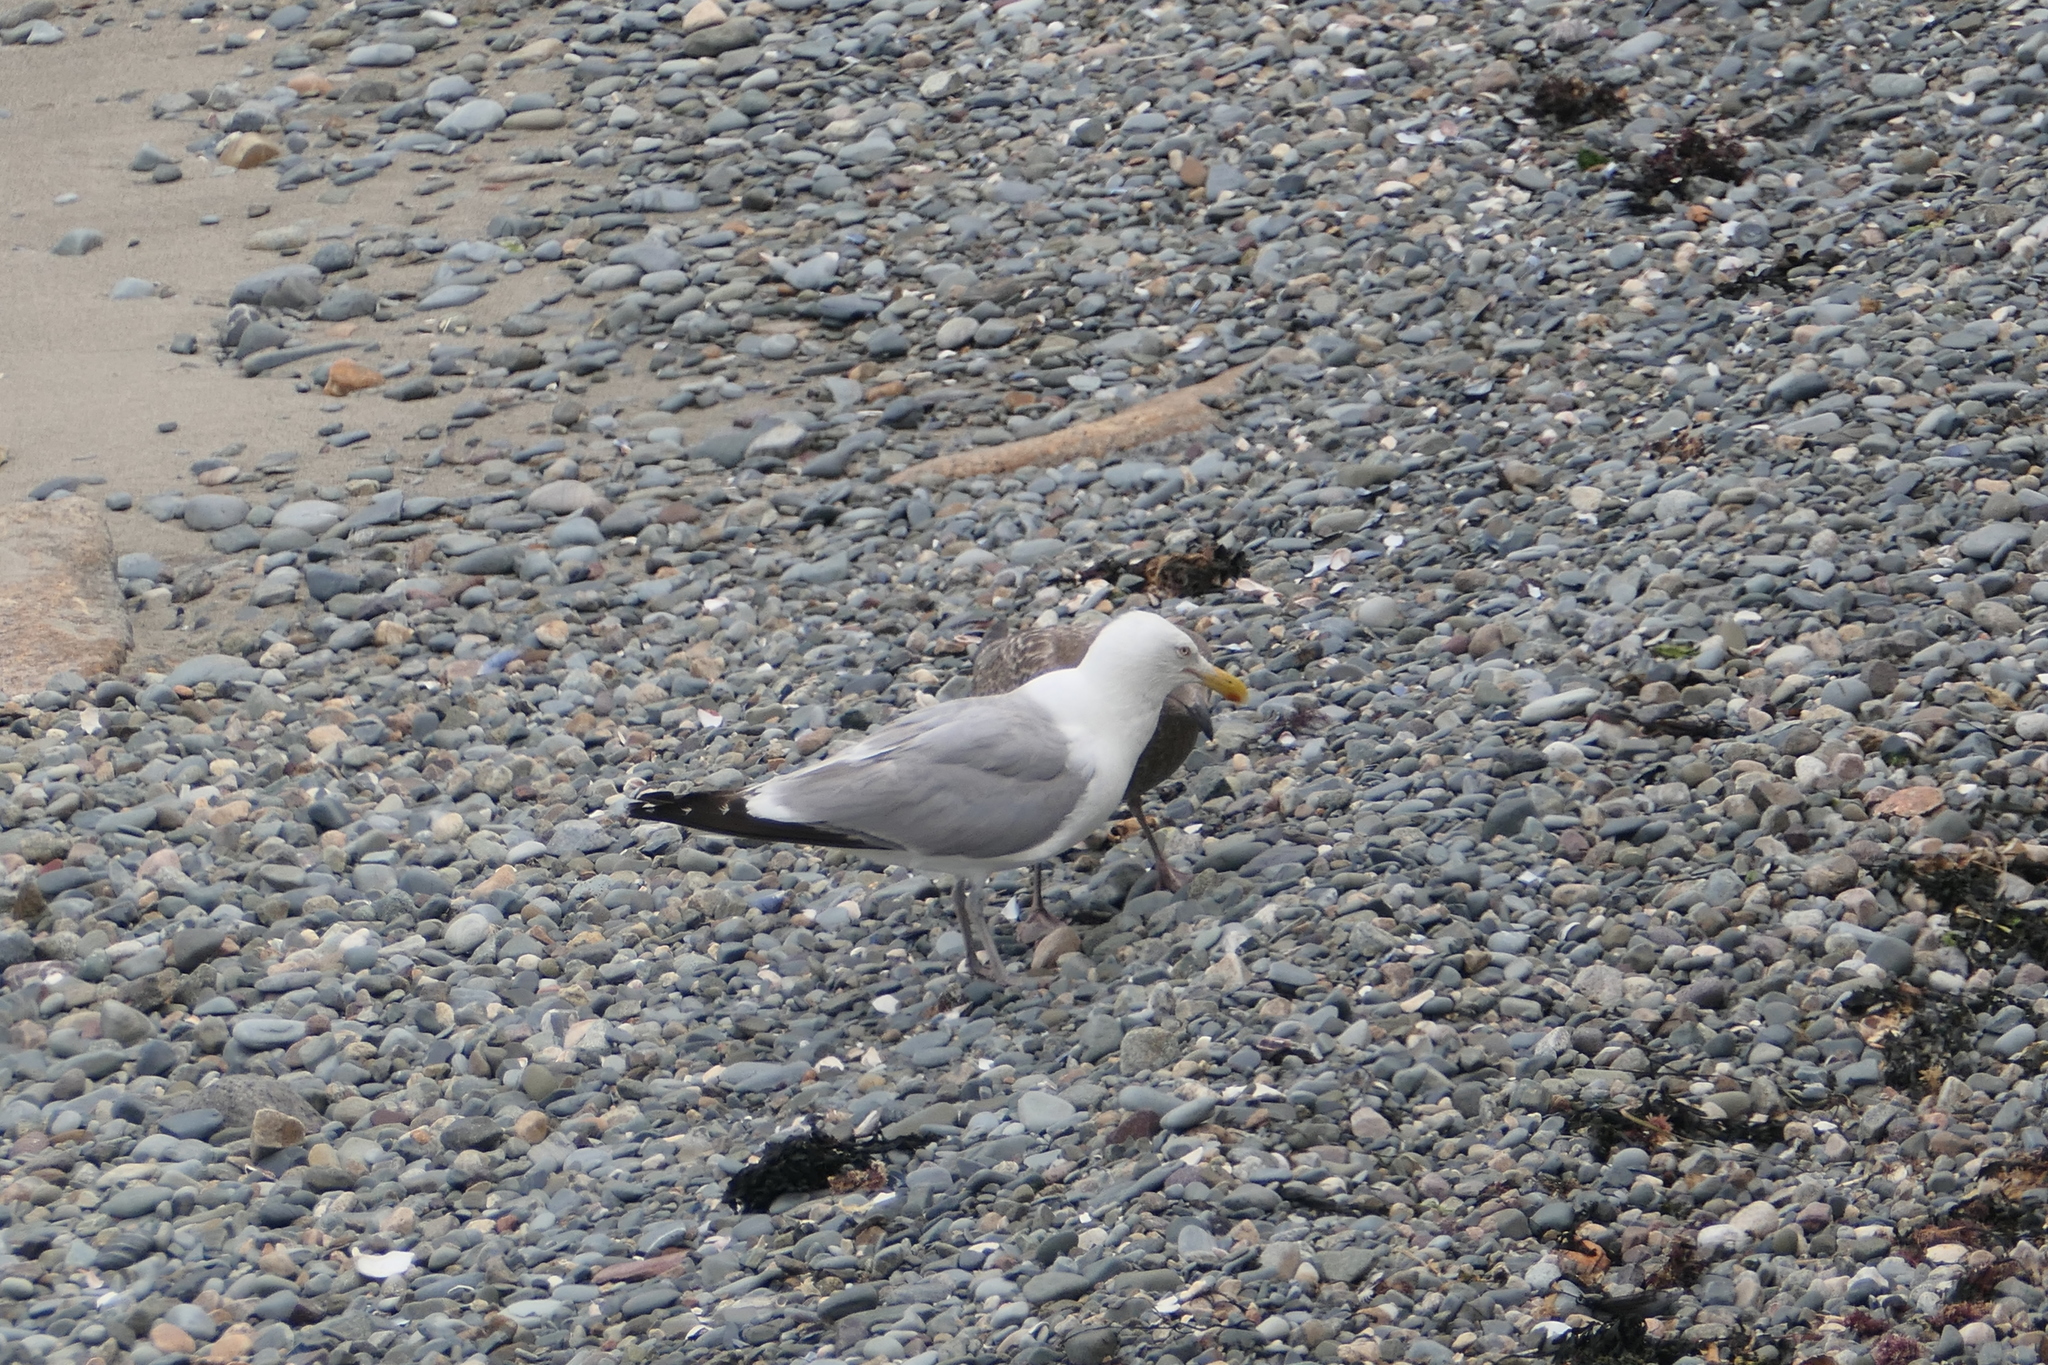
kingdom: Animalia
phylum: Chordata
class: Aves
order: Charadriiformes
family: Laridae
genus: Larus
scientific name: Larus argentatus
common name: Herring gull
